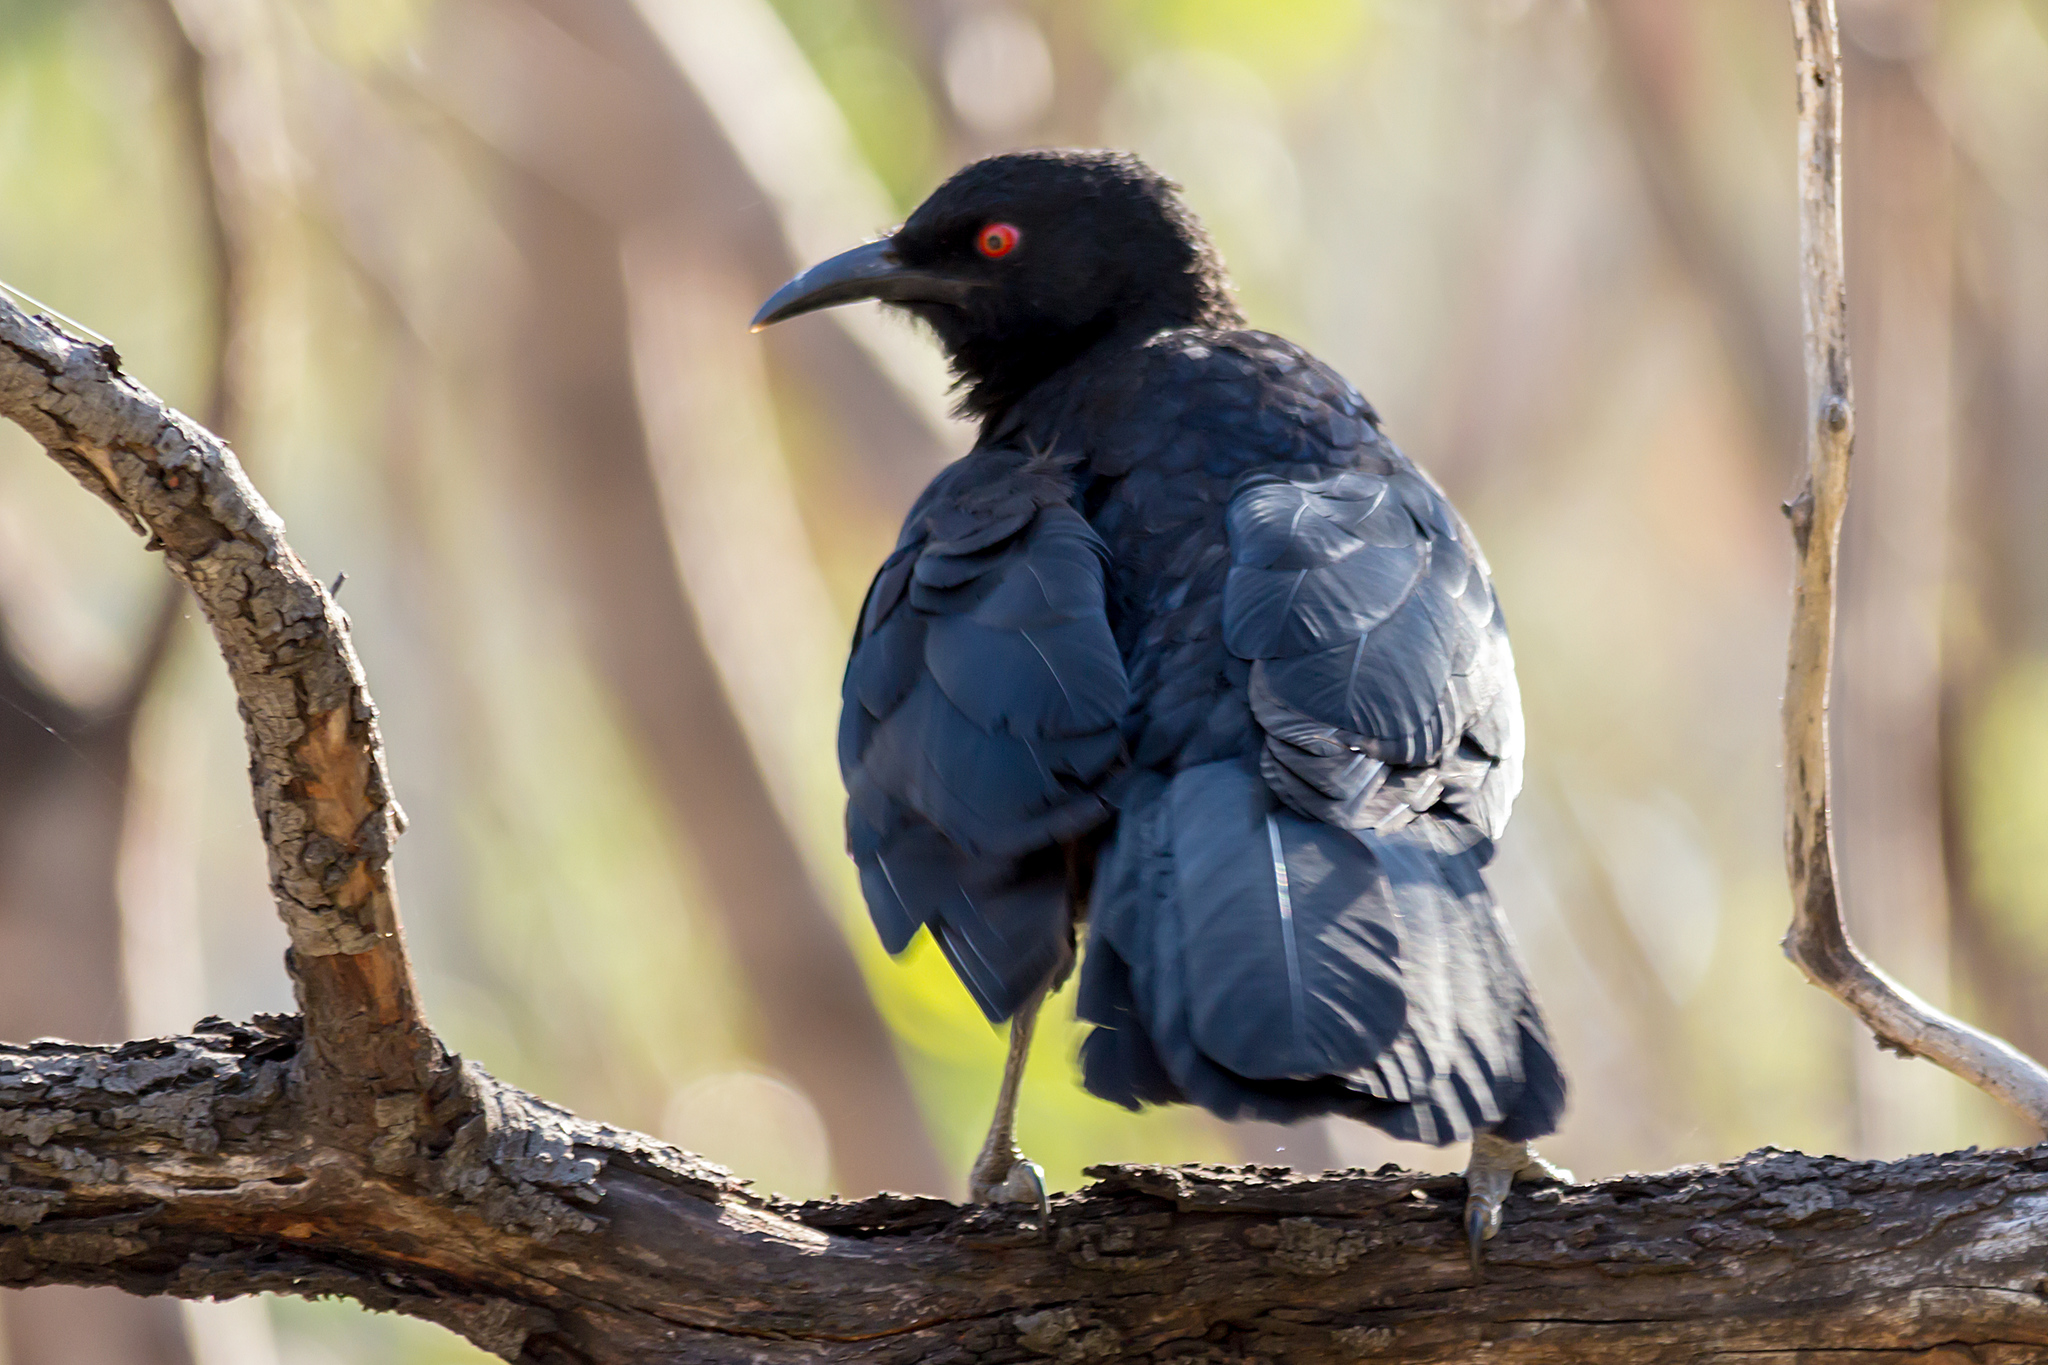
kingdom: Animalia
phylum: Chordata
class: Aves
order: Passeriformes
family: Corcoracidae
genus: Corcorax
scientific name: Corcorax melanoramphos
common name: White-winged chough
